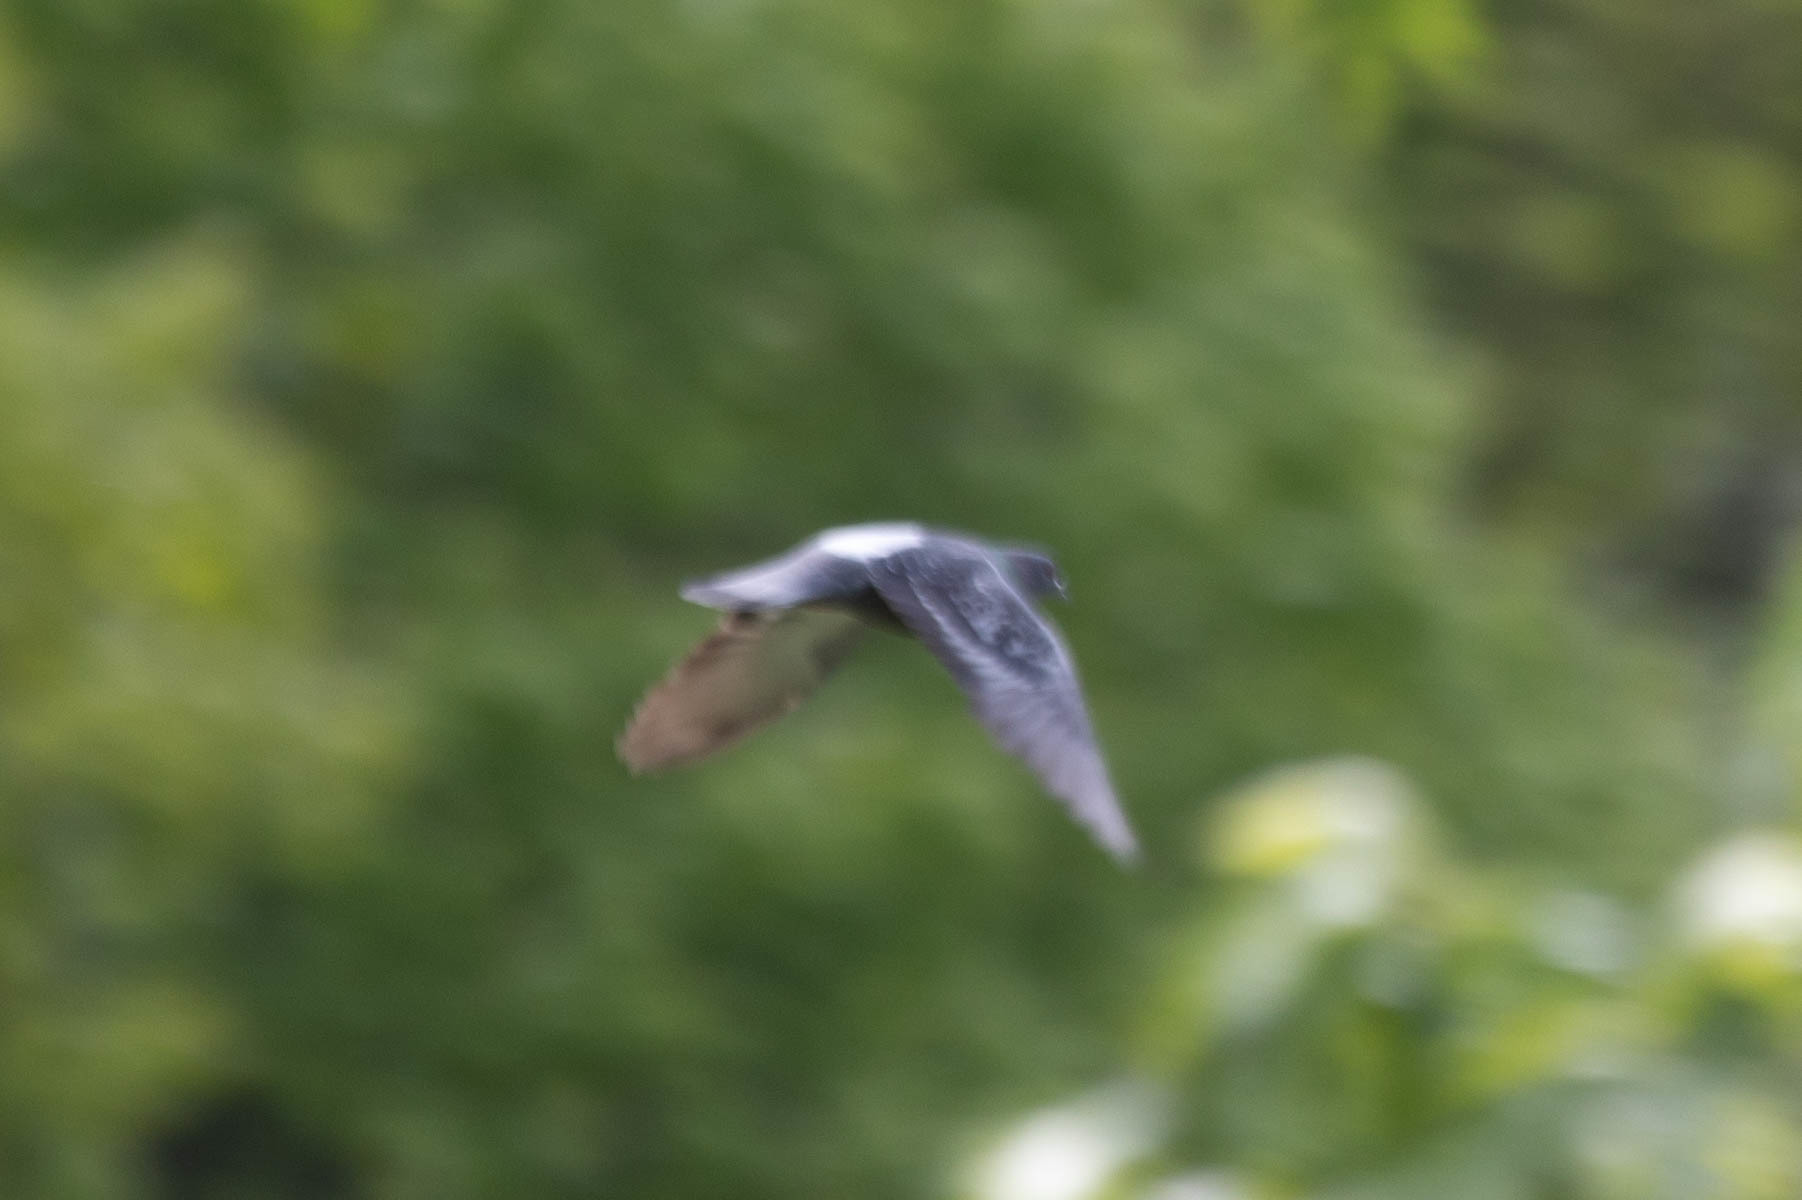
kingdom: Animalia
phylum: Chordata
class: Aves
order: Columbiformes
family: Columbidae
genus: Columba
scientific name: Columba livia
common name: Rock pigeon
